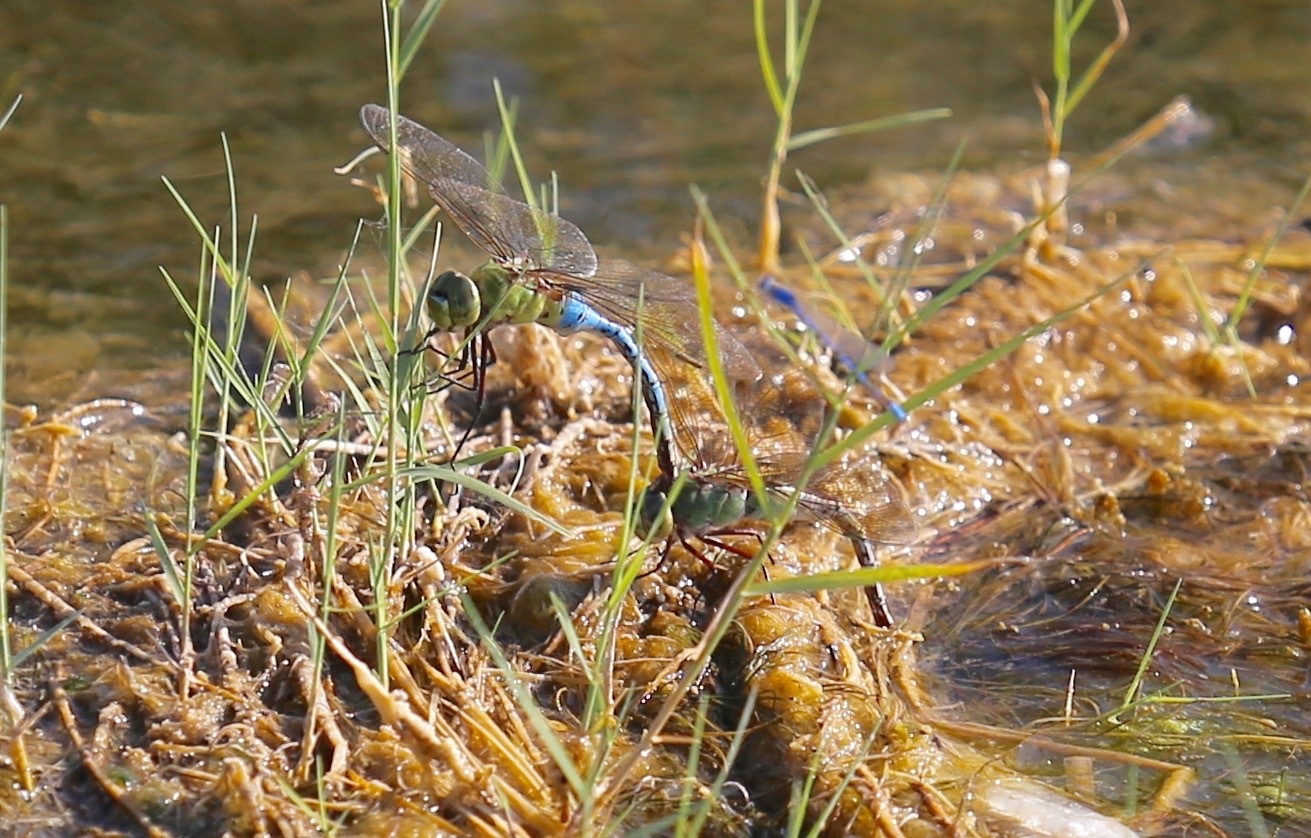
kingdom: Animalia
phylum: Arthropoda
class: Insecta
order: Odonata
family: Aeshnidae
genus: Anax
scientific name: Anax junius
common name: Common green darner
